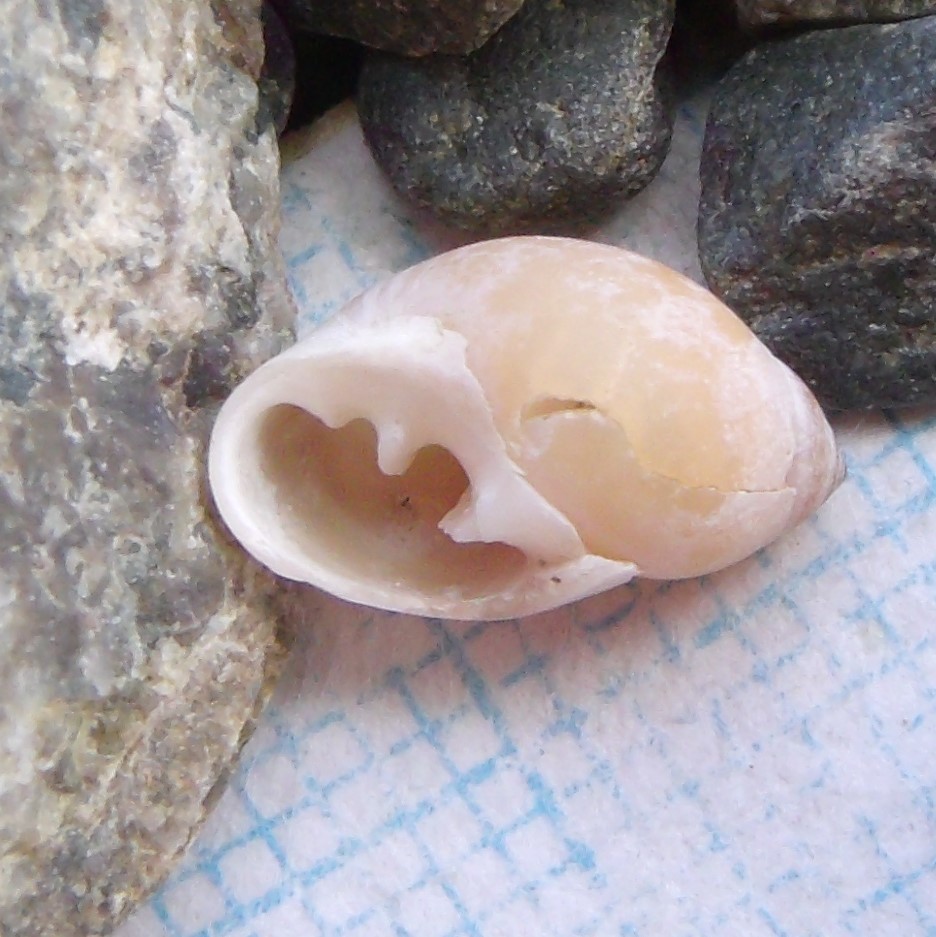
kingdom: Animalia
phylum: Mollusca
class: Gastropoda
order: Ellobiida
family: Ellobiidae
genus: Marinula
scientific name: Marinula filholi
